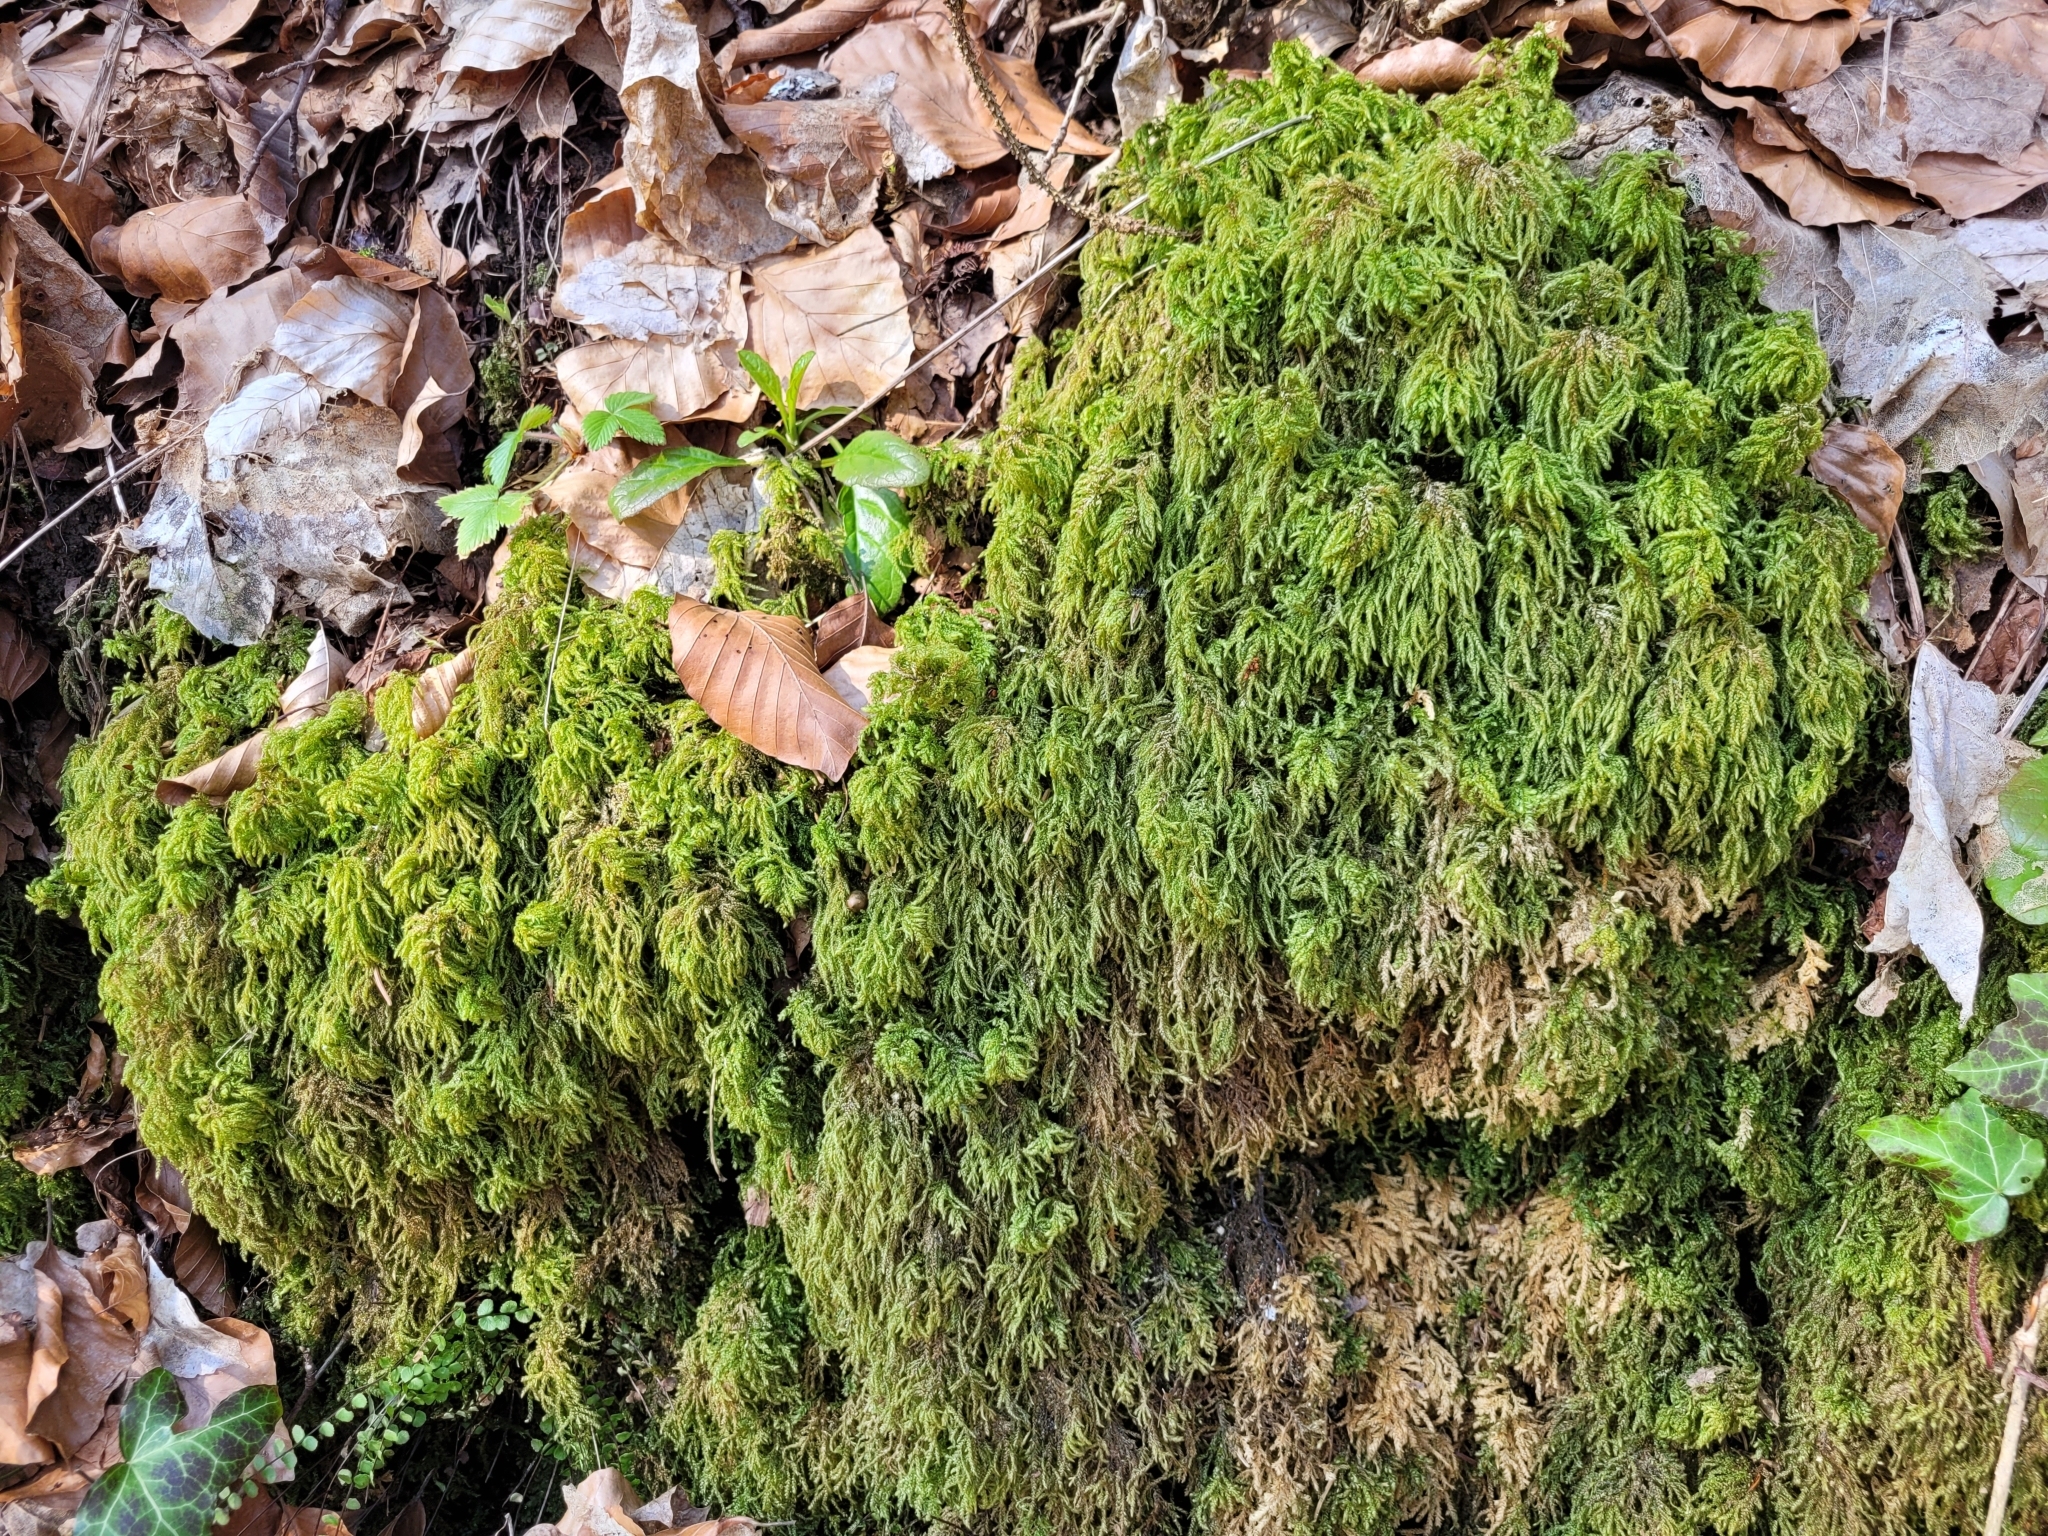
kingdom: Plantae
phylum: Bryophyta
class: Bryopsida
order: Hypnales
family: Neckeraceae
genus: Thamnobryum
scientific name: Thamnobryum alopecurum
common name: Fox-tail feather-moss
